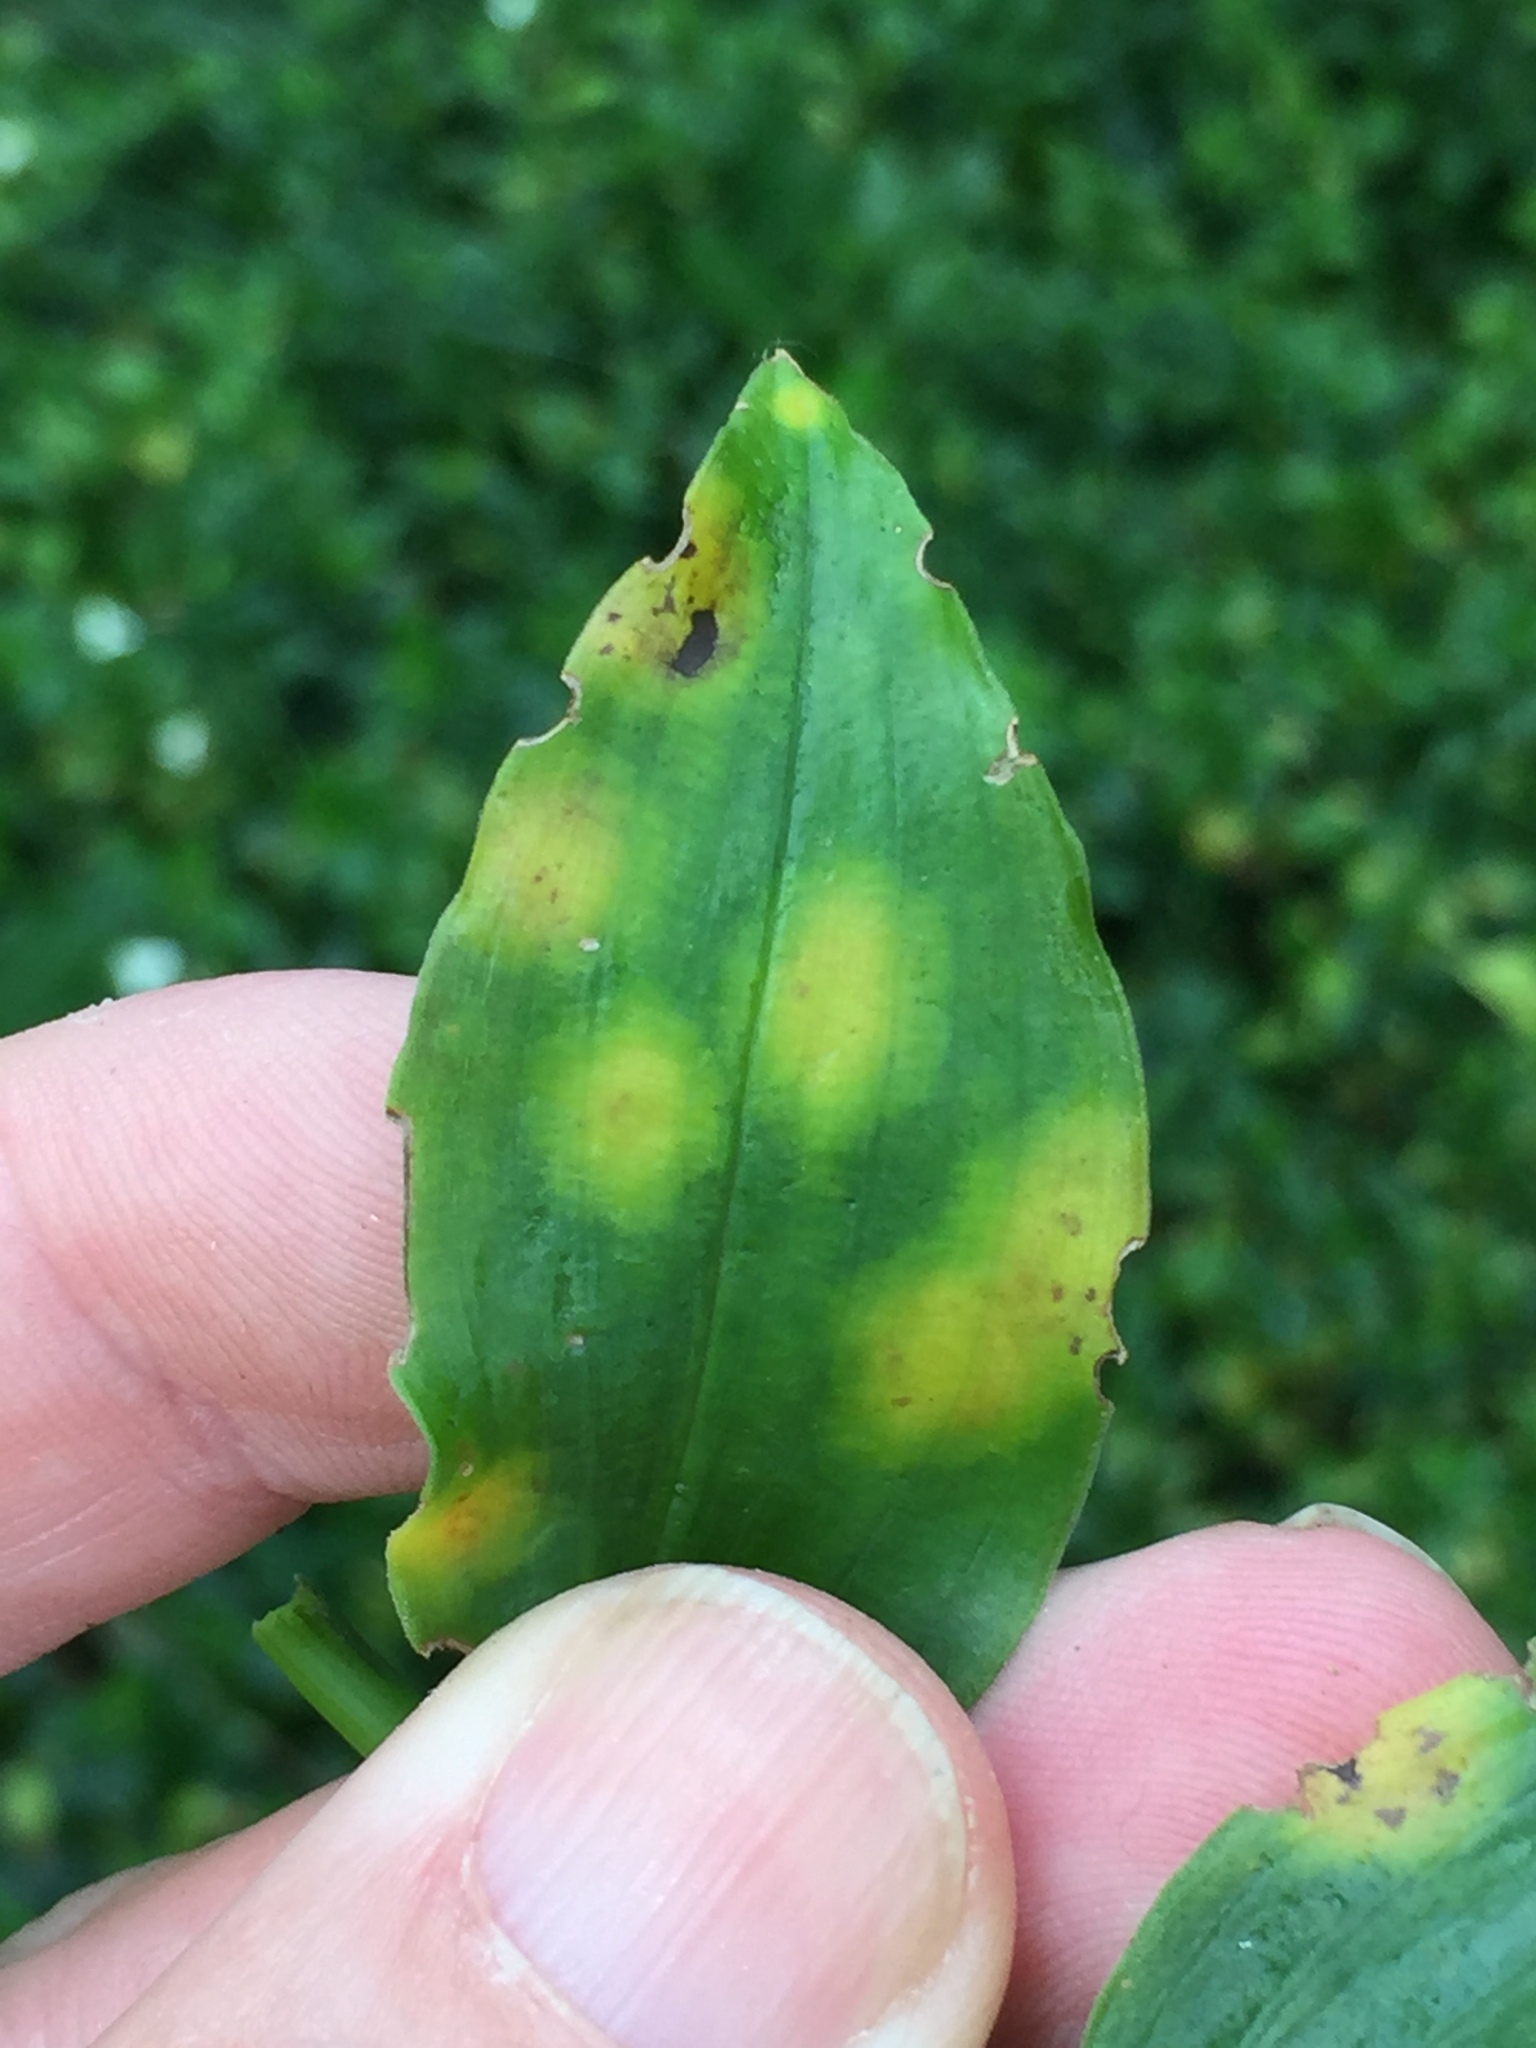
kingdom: Fungi
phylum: Basidiomycota
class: Exobasidiomycetes
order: Exobasidiales
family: Brachybasidiaceae
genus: Kordyana
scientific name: Kordyana brasiliensis
